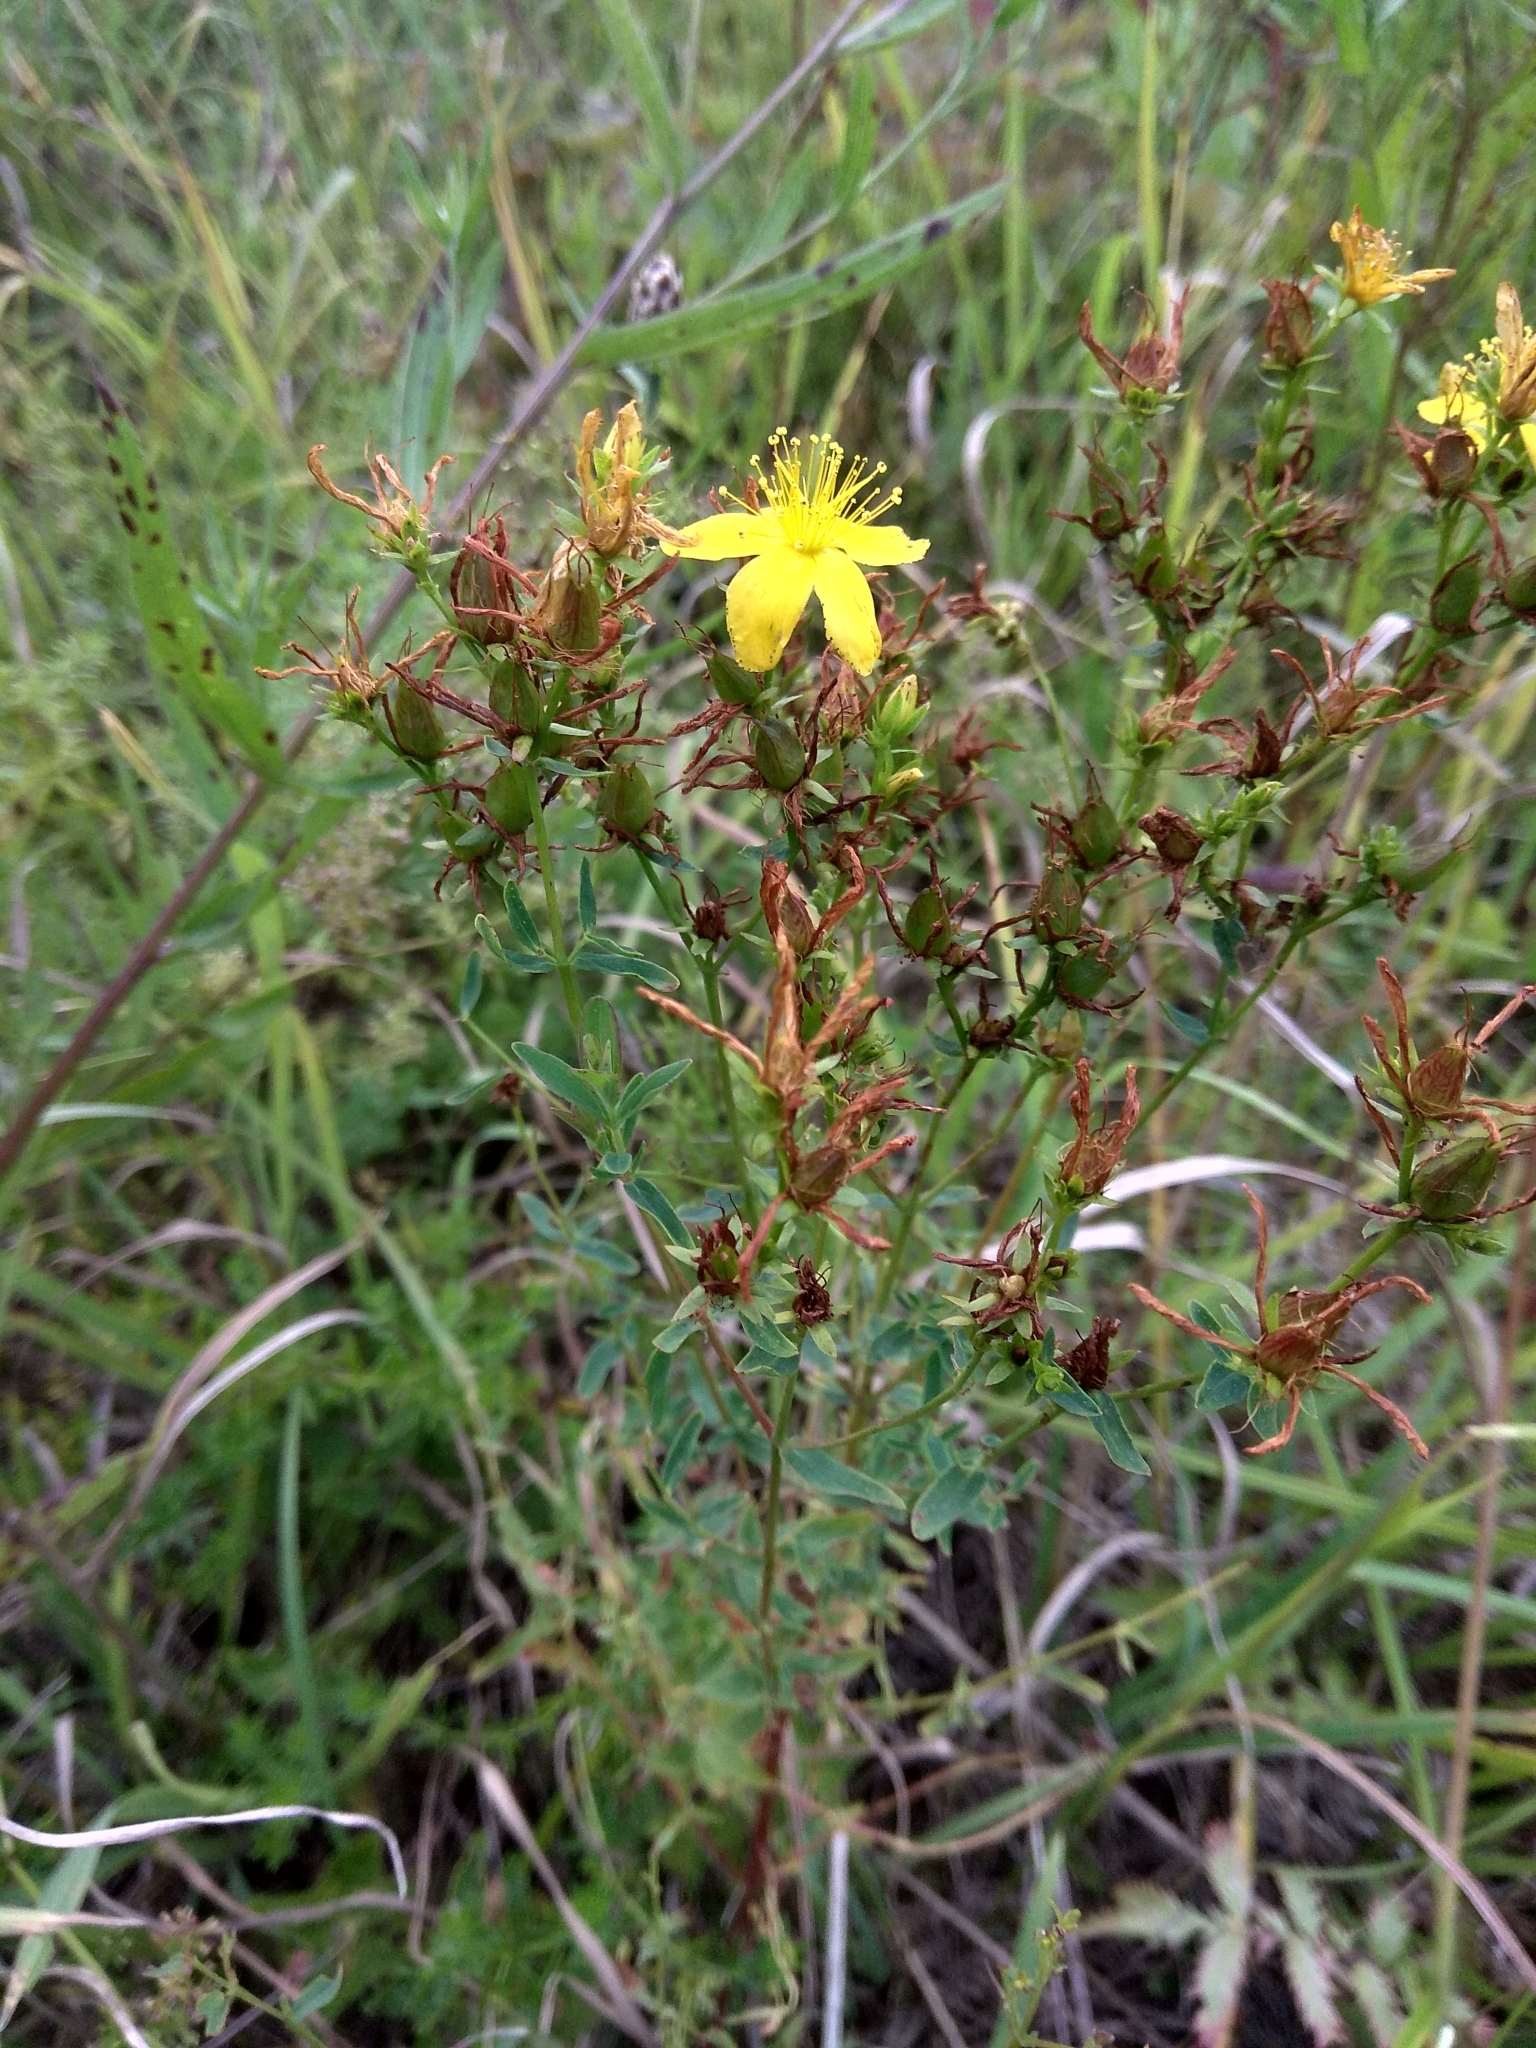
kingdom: Plantae
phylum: Tracheophyta
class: Magnoliopsida
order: Malpighiales
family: Hypericaceae
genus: Hypericum
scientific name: Hypericum perforatum
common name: Common st. johnswort
